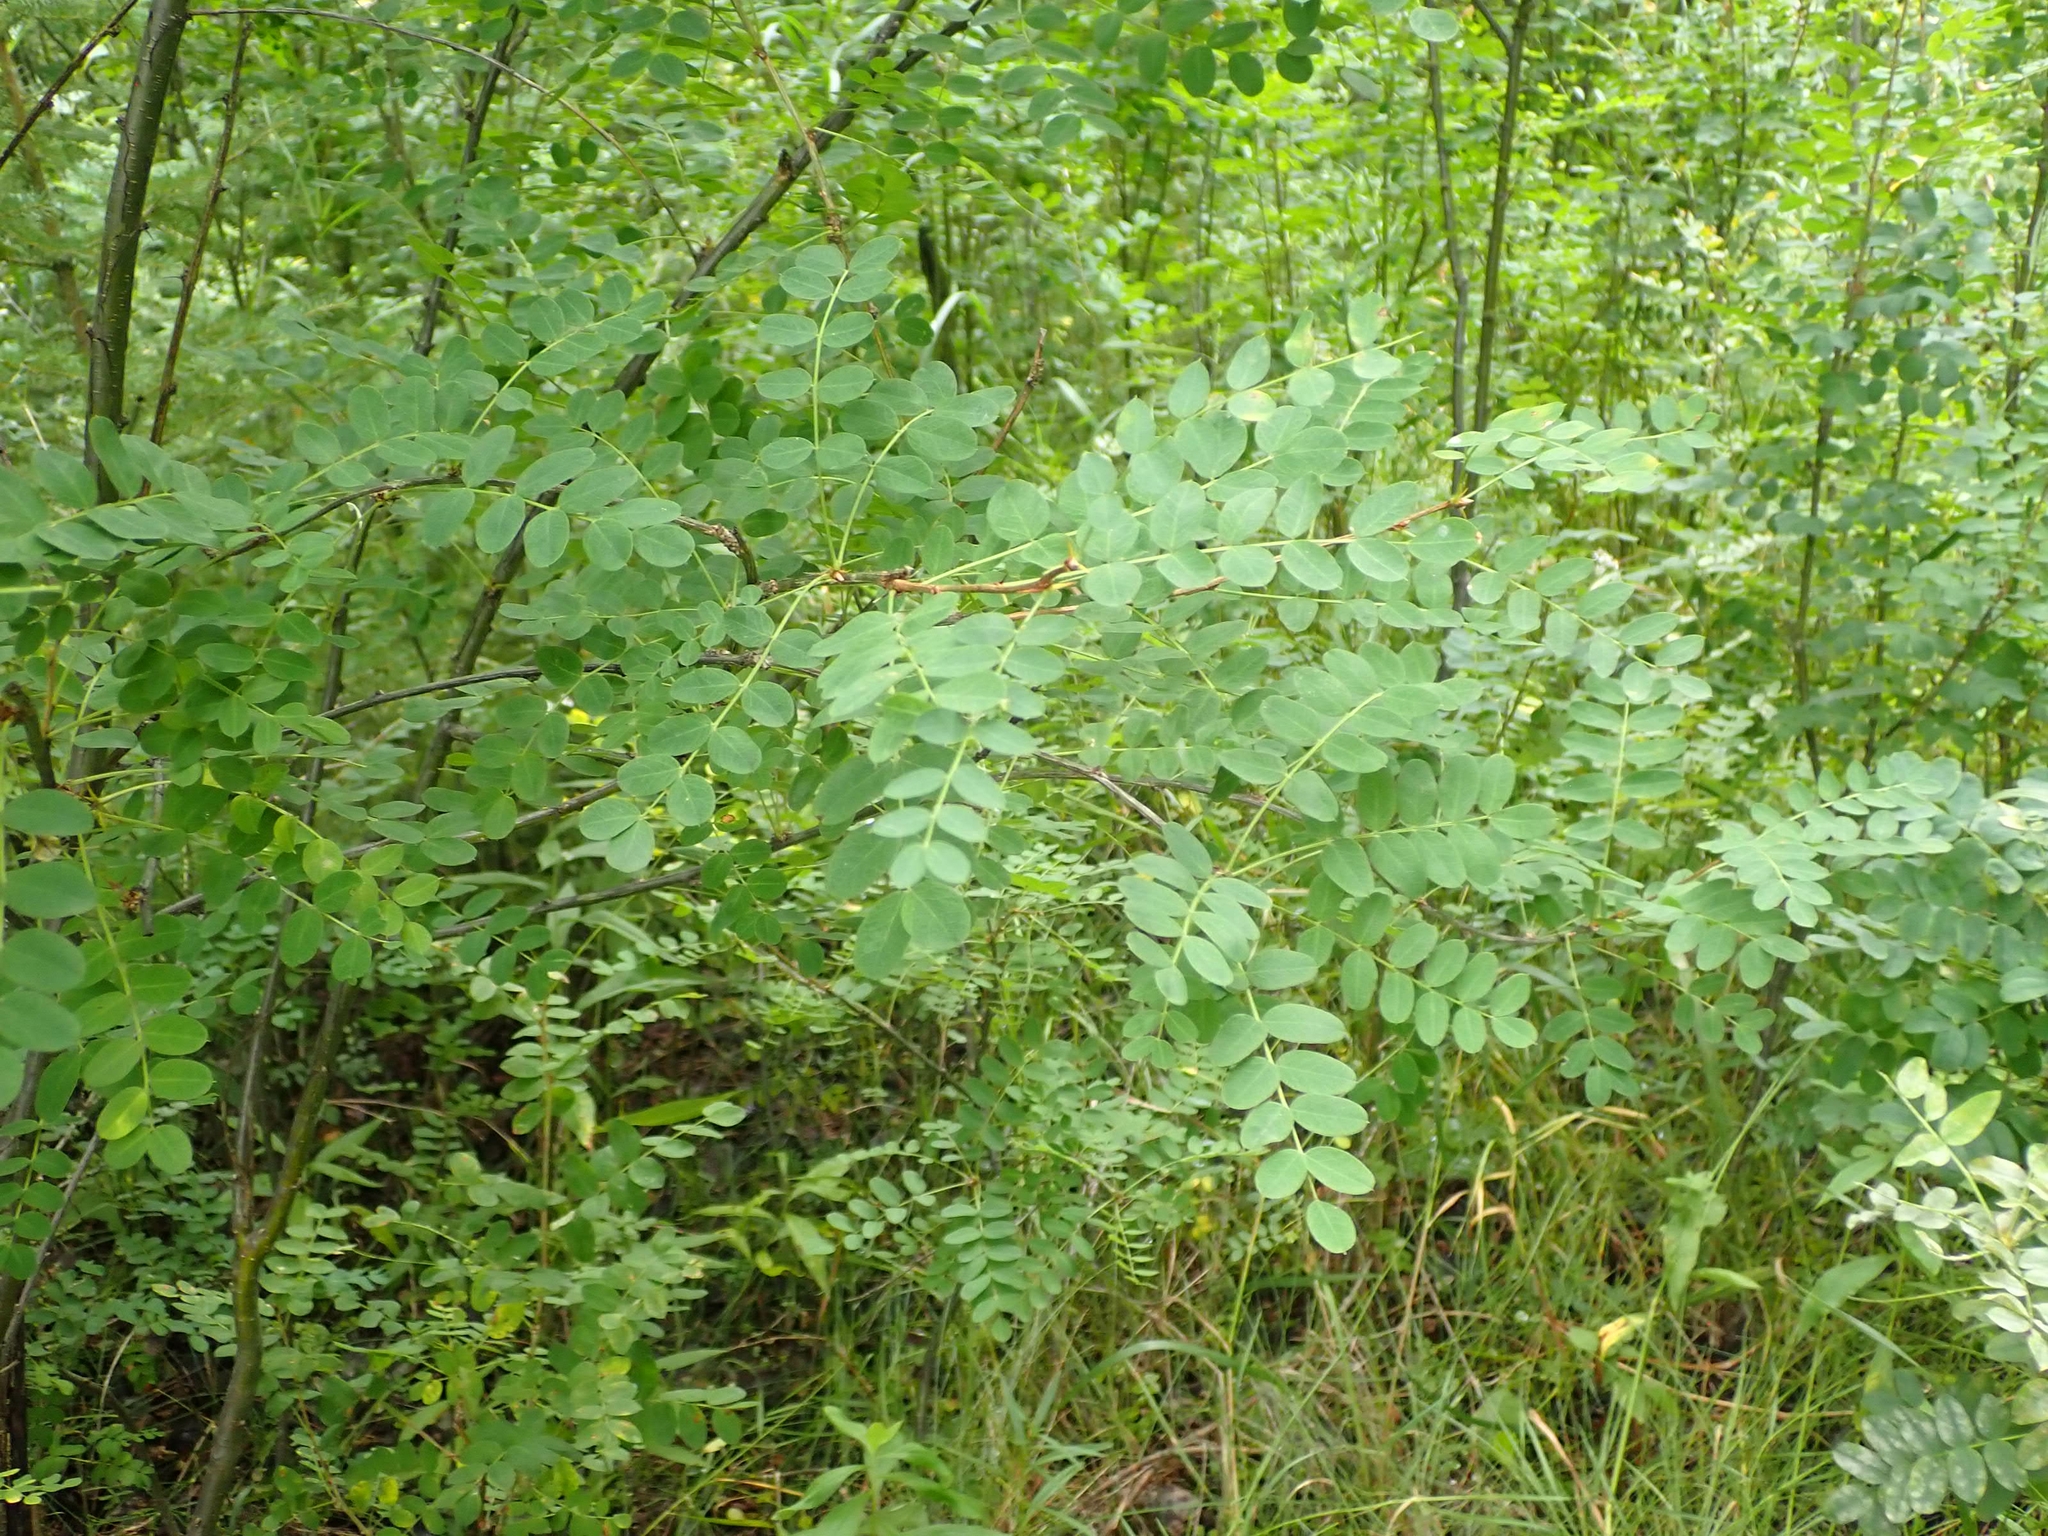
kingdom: Plantae
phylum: Tracheophyta
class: Magnoliopsida
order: Fabales
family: Fabaceae
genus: Caragana
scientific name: Caragana arborescens
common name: Siberian peashrub
